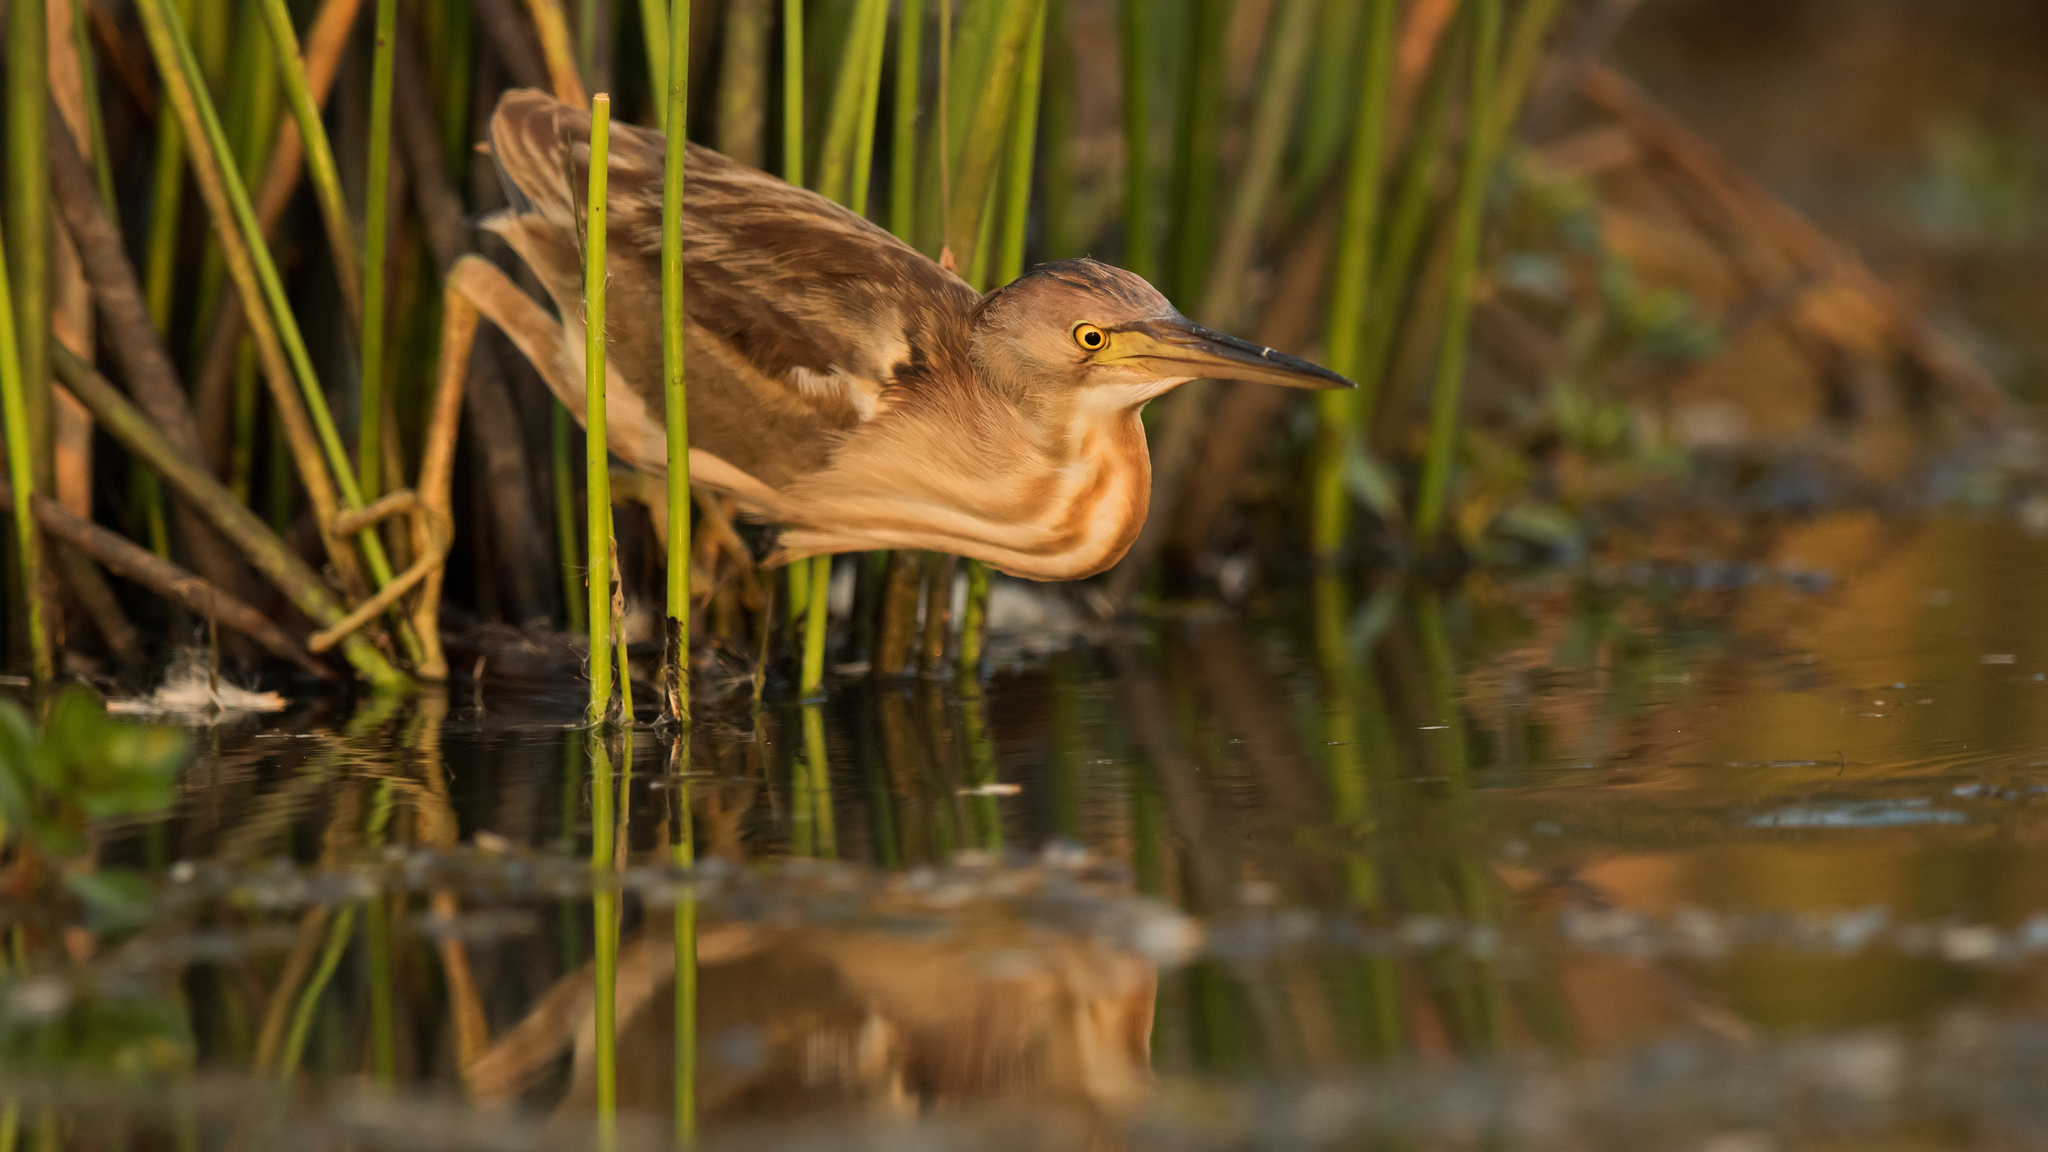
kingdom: Animalia
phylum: Chordata
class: Aves
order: Pelecaniformes
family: Ardeidae
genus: Ixobrychus
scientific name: Ixobrychus sinensis
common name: Yellow bittern
